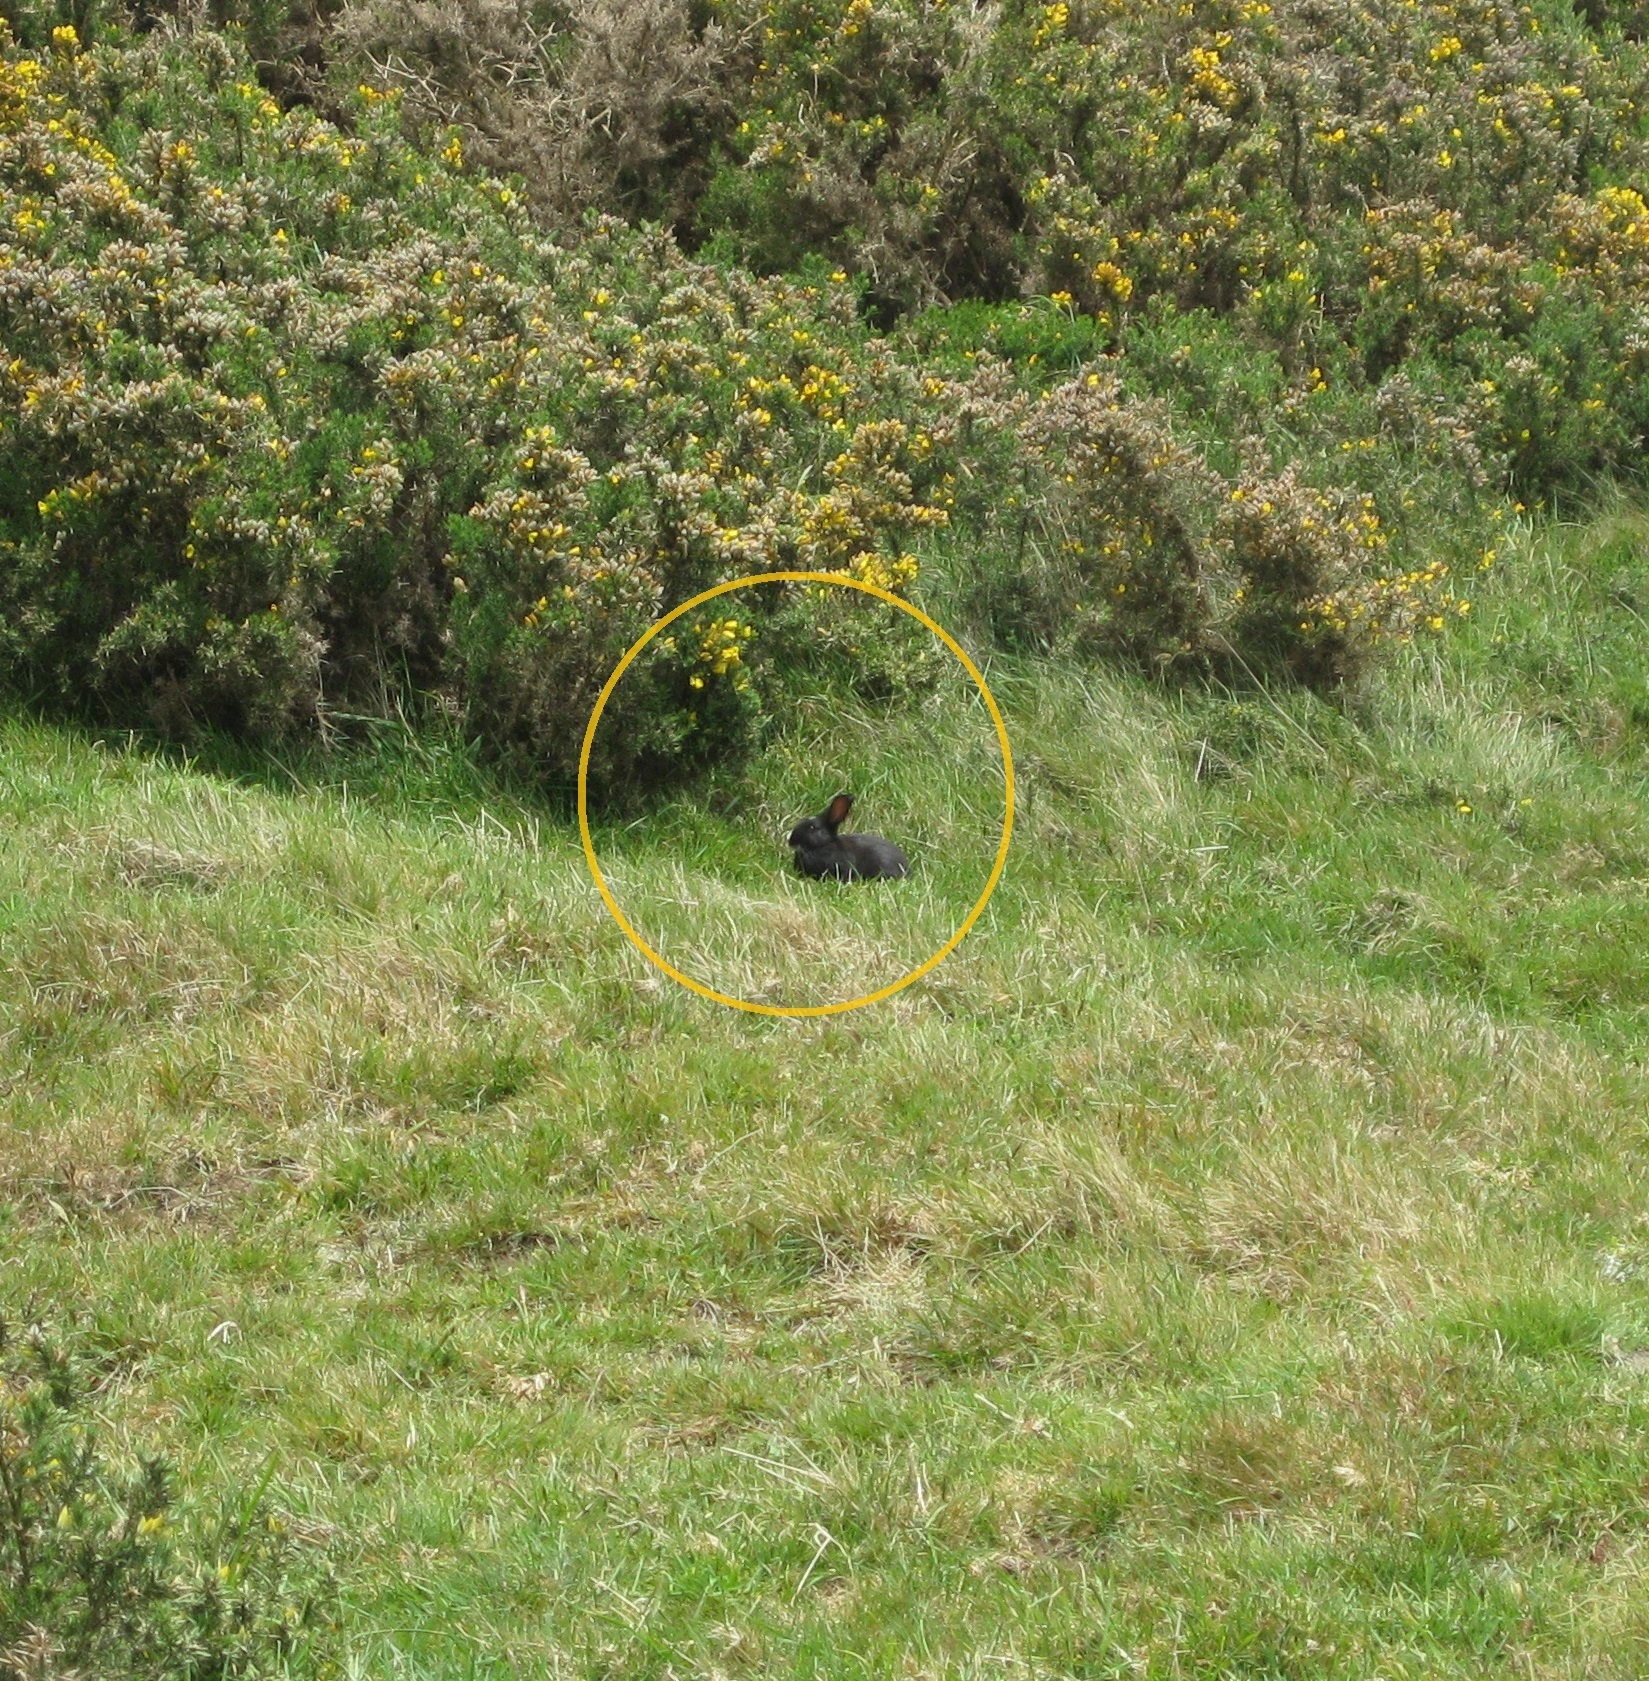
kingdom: Animalia
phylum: Chordata
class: Mammalia
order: Lagomorpha
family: Leporidae
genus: Oryctolagus
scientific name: Oryctolagus cuniculus
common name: European rabbit
